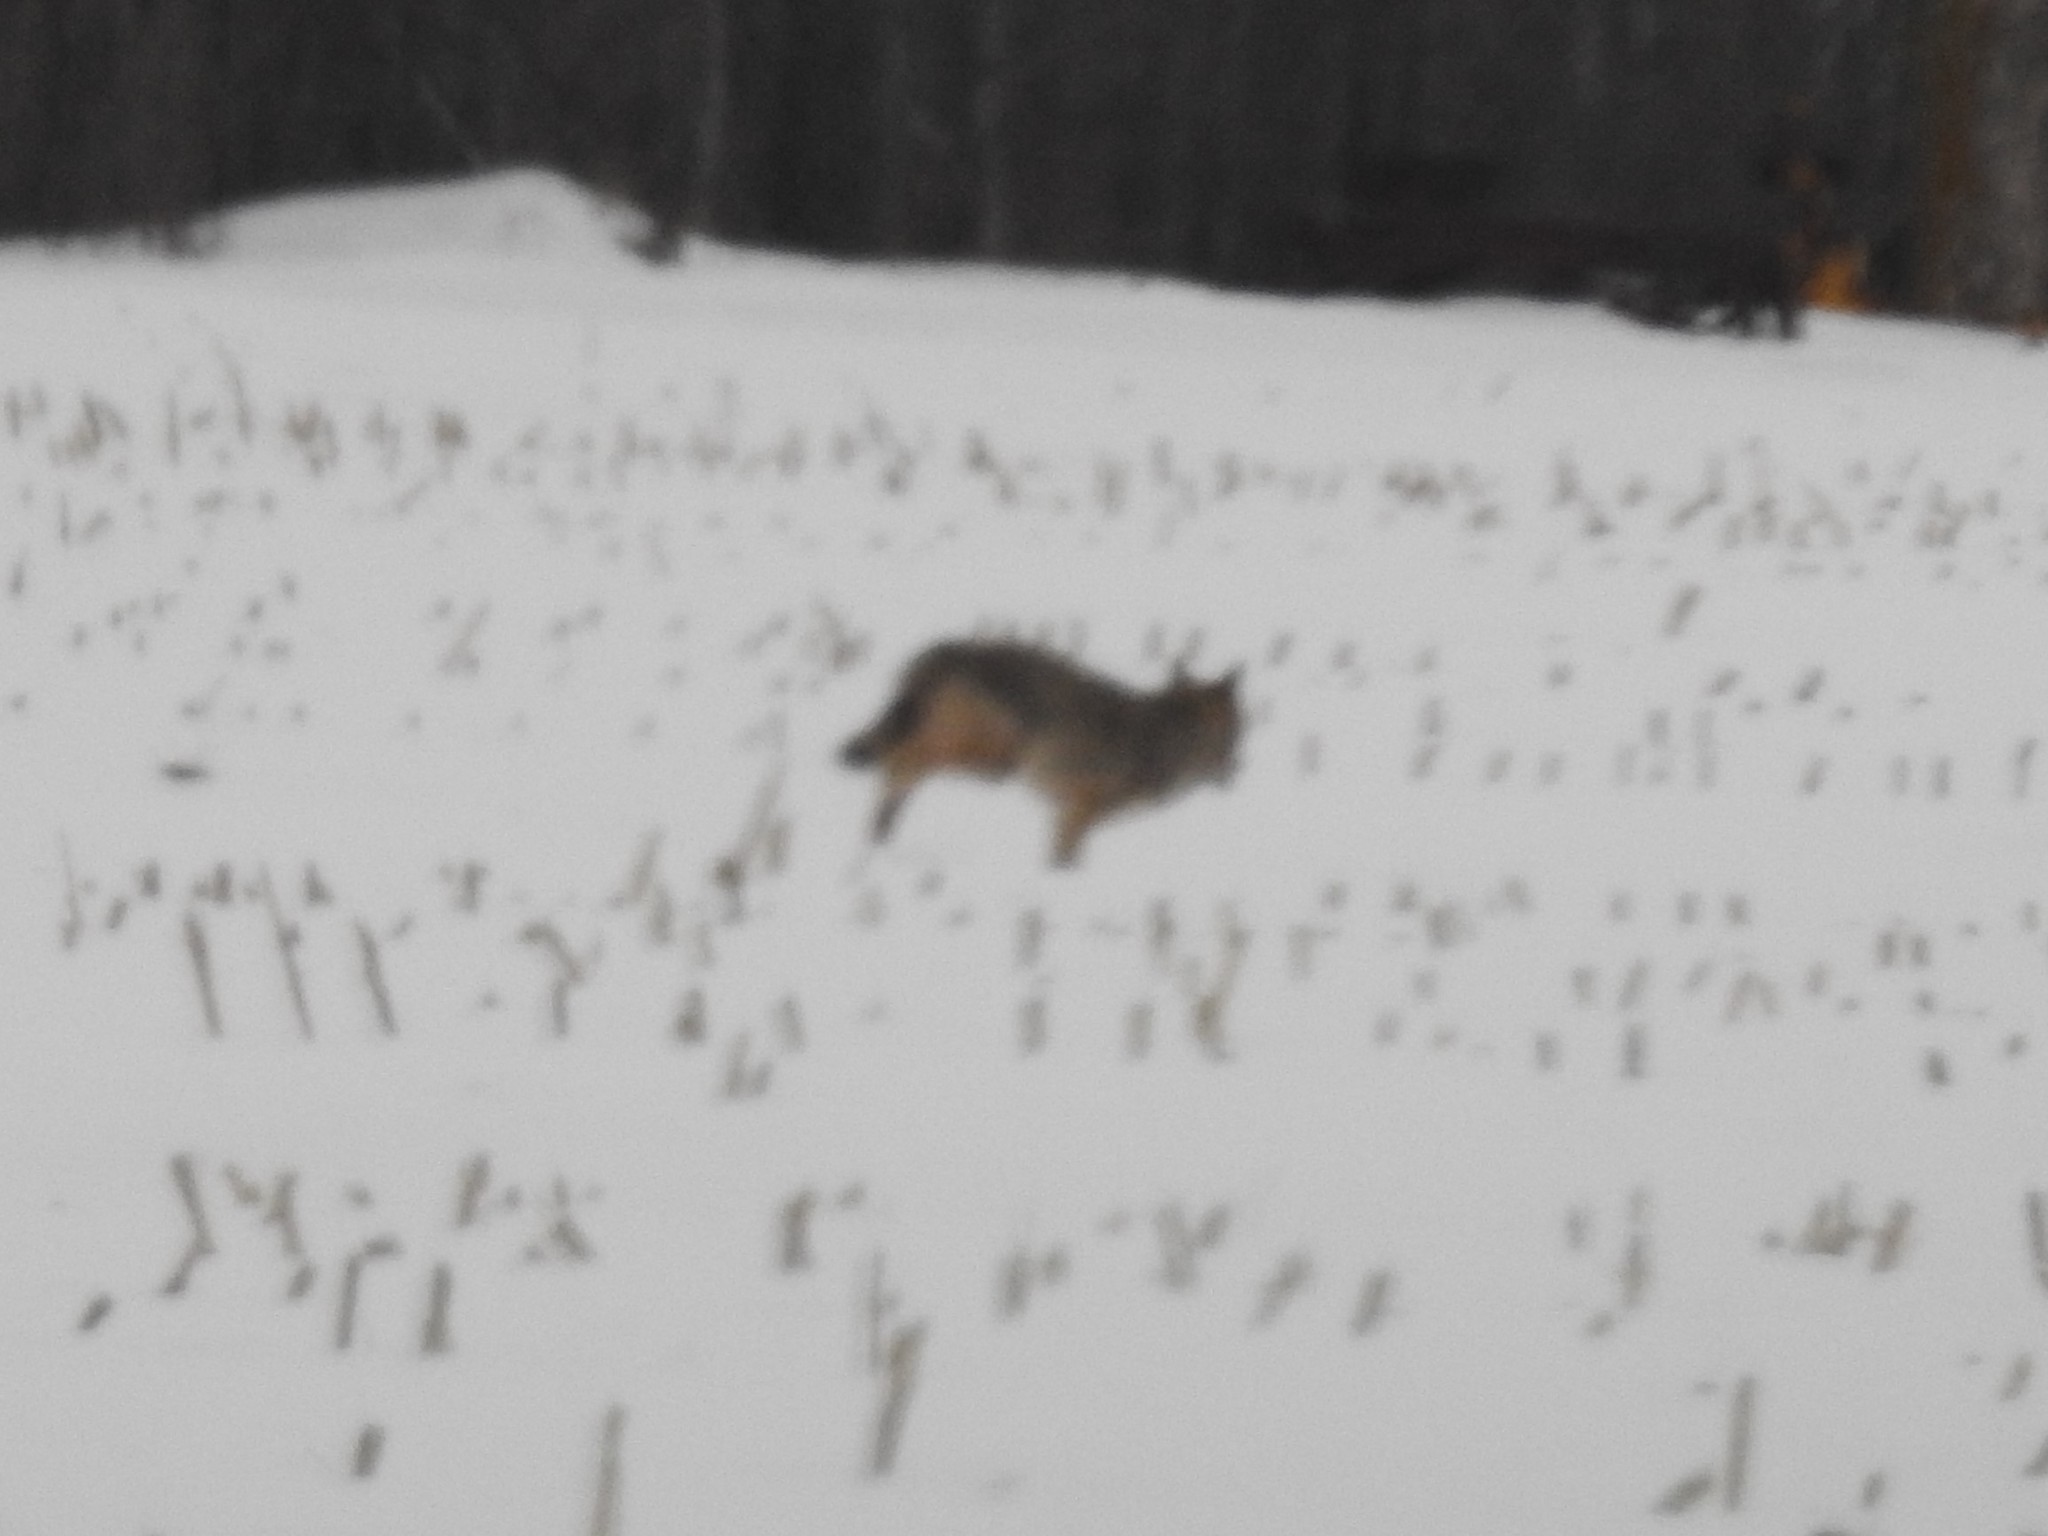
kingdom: Animalia
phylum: Chordata
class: Mammalia
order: Carnivora
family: Canidae
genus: Canis
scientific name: Canis latrans
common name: Coyote
